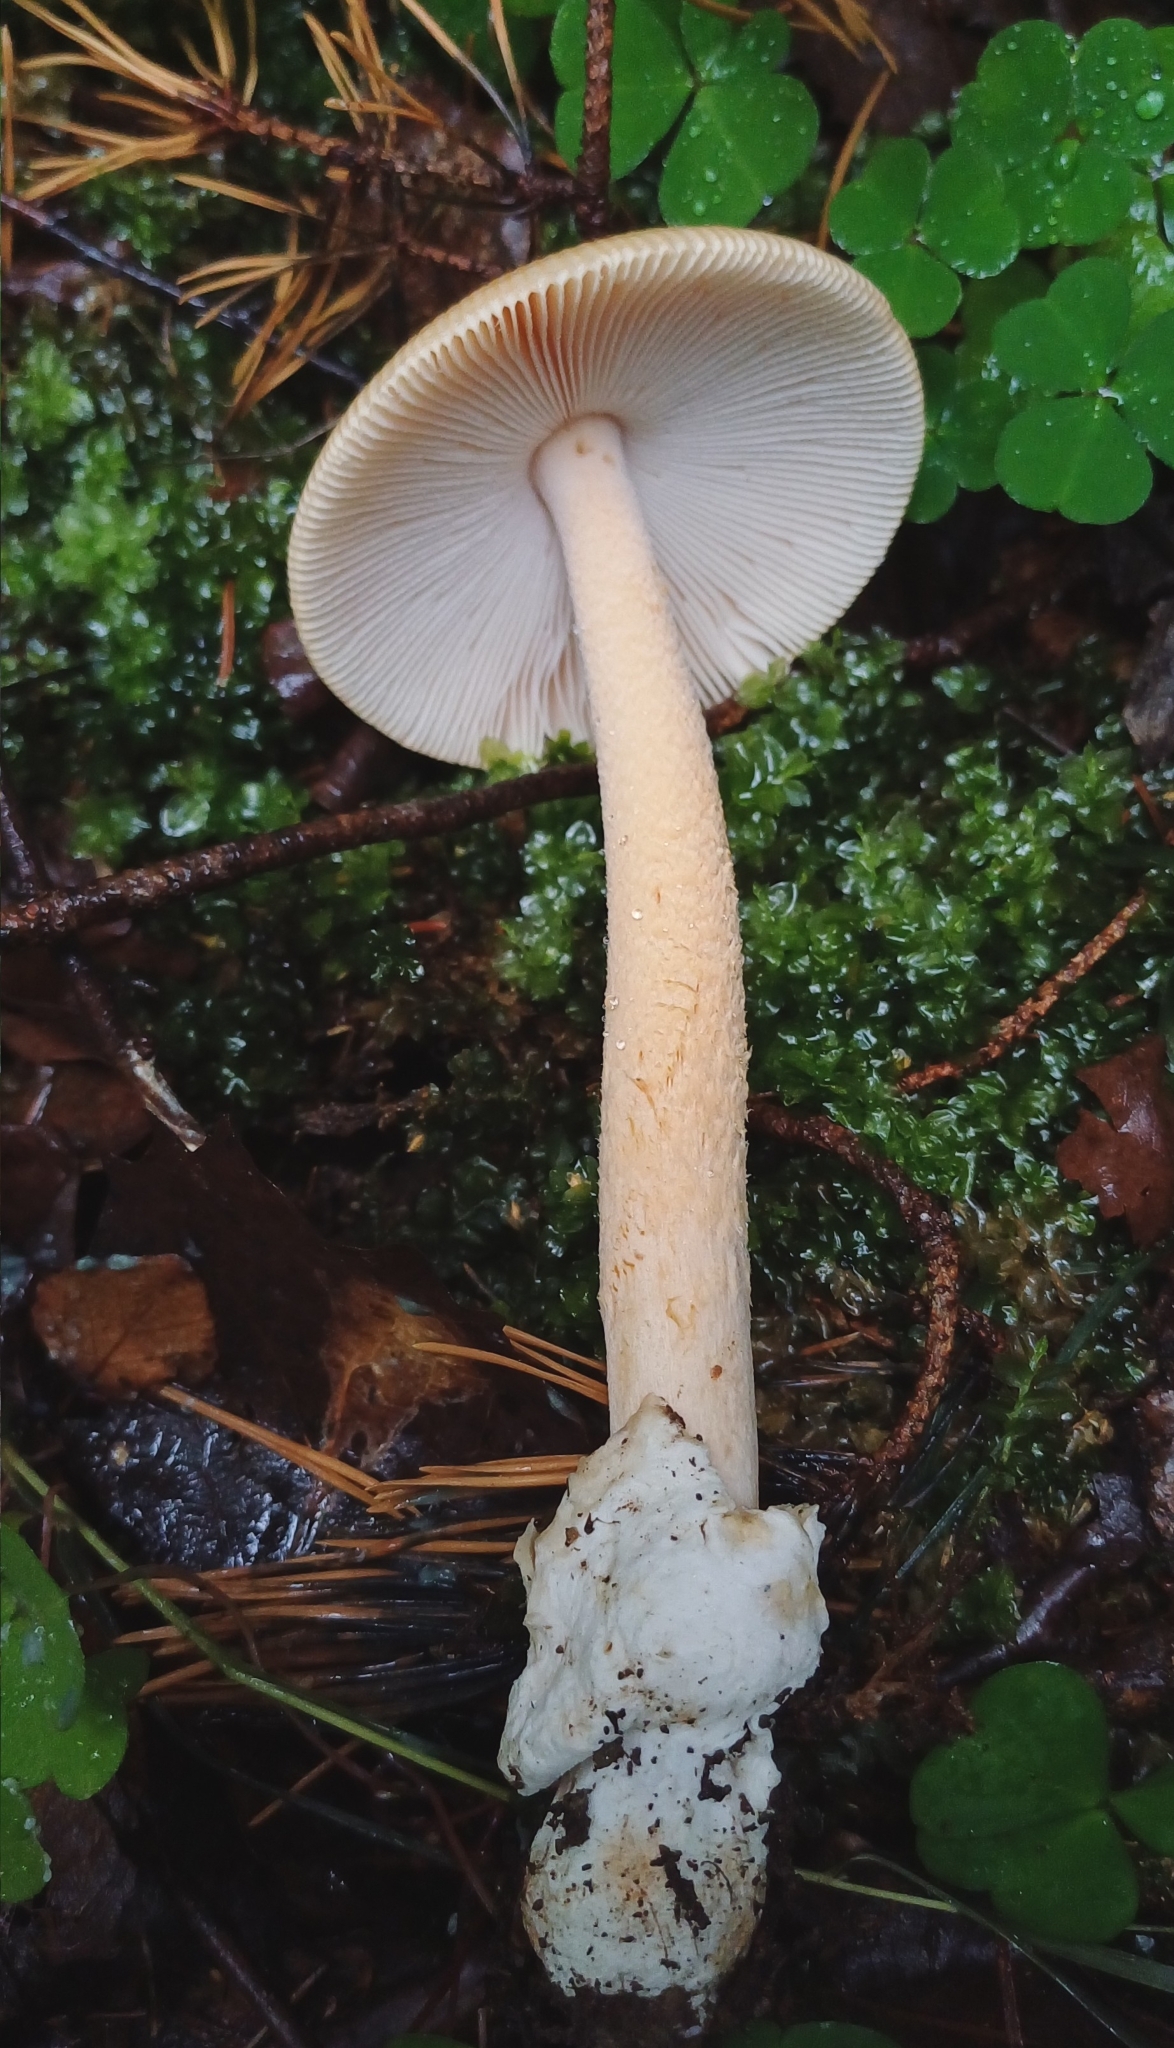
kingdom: Fungi
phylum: Basidiomycota
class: Agaricomycetes
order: Agaricales
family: Amanitaceae
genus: Amanita
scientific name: Amanita crocea
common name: Orange grisette
